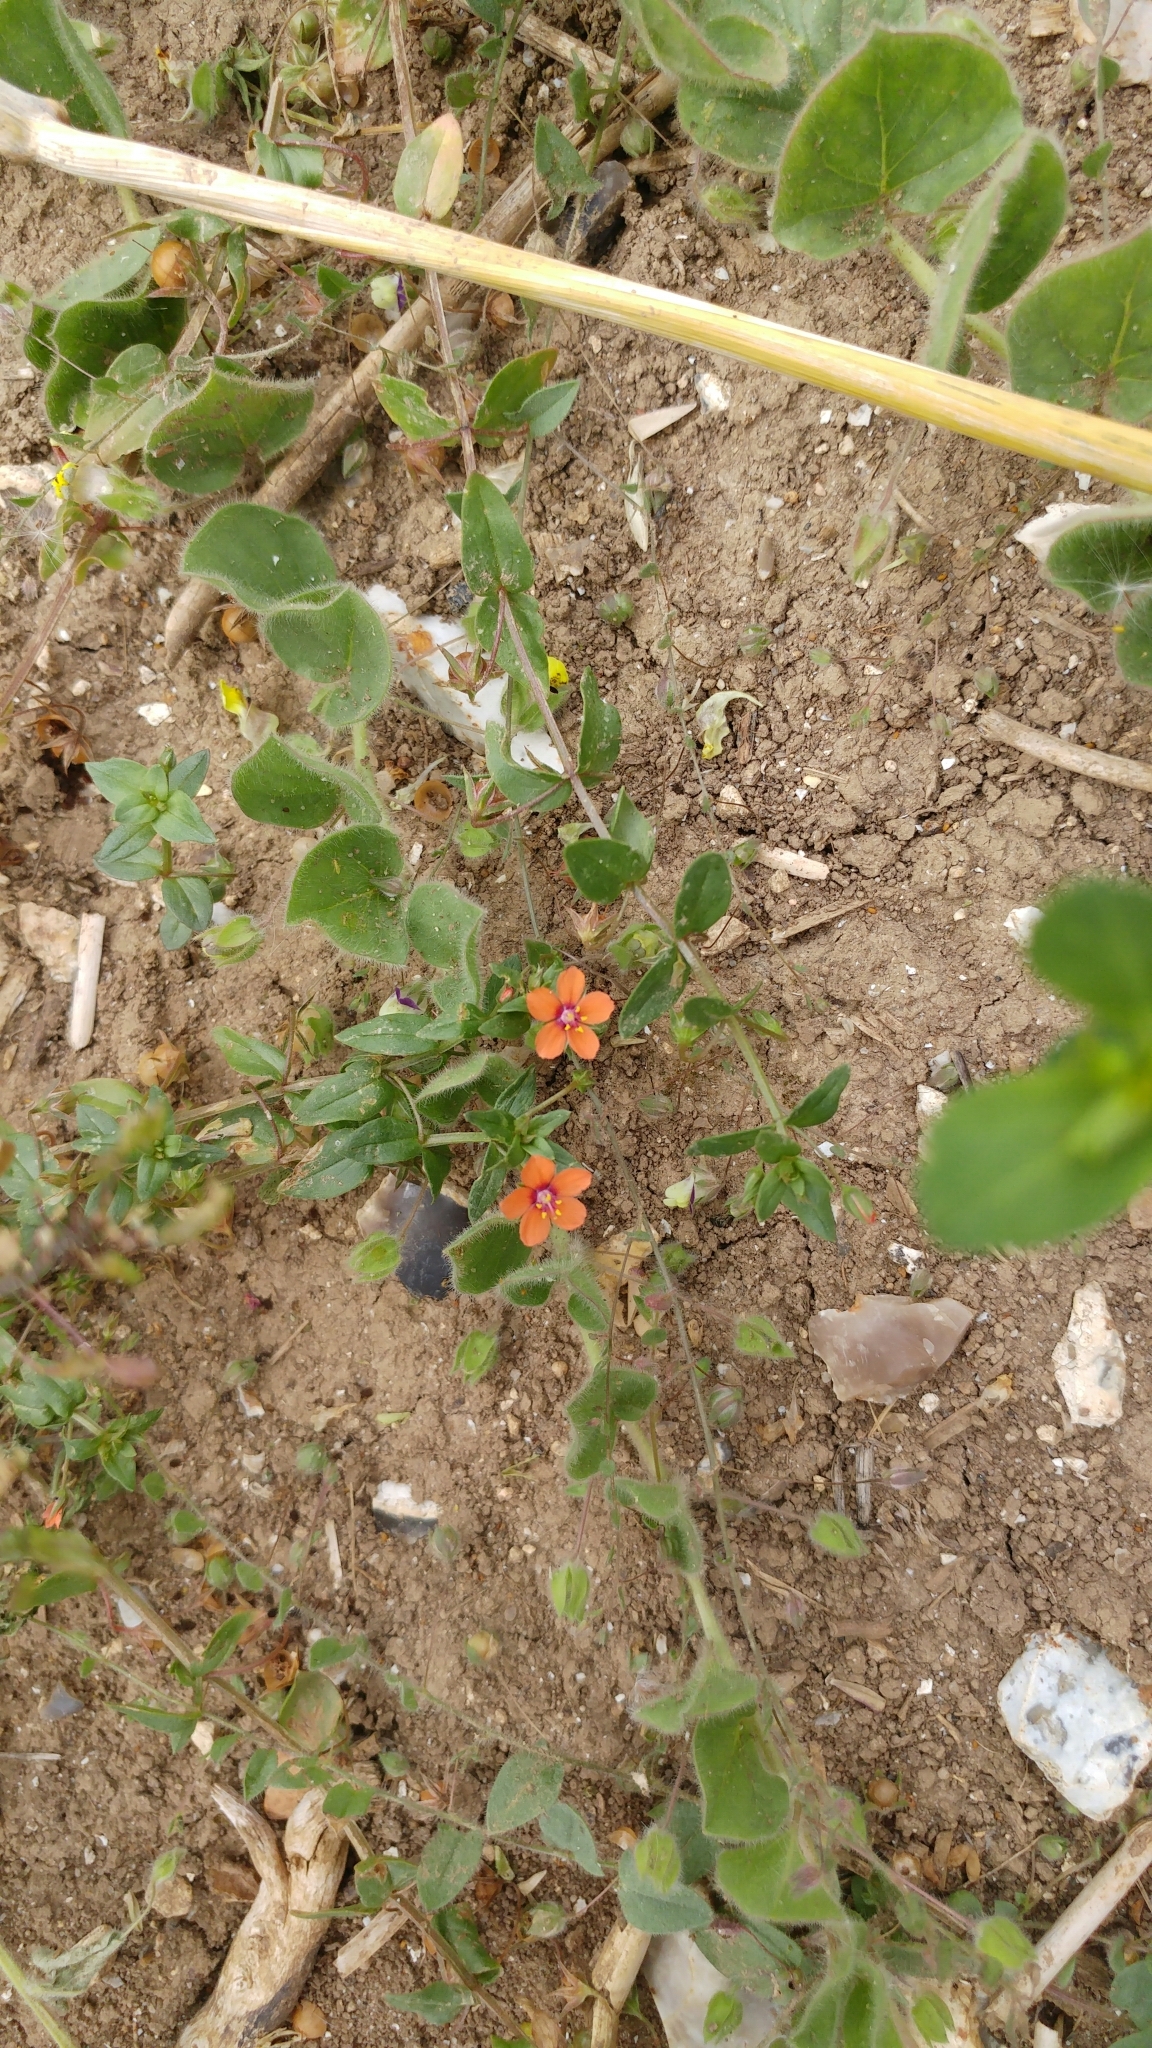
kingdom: Plantae
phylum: Tracheophyta
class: Magnoliopsida
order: Ericales
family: Primulaceae
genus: Lysimachia
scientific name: Lysimachia arvensis
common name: Scarlet pimpernel
